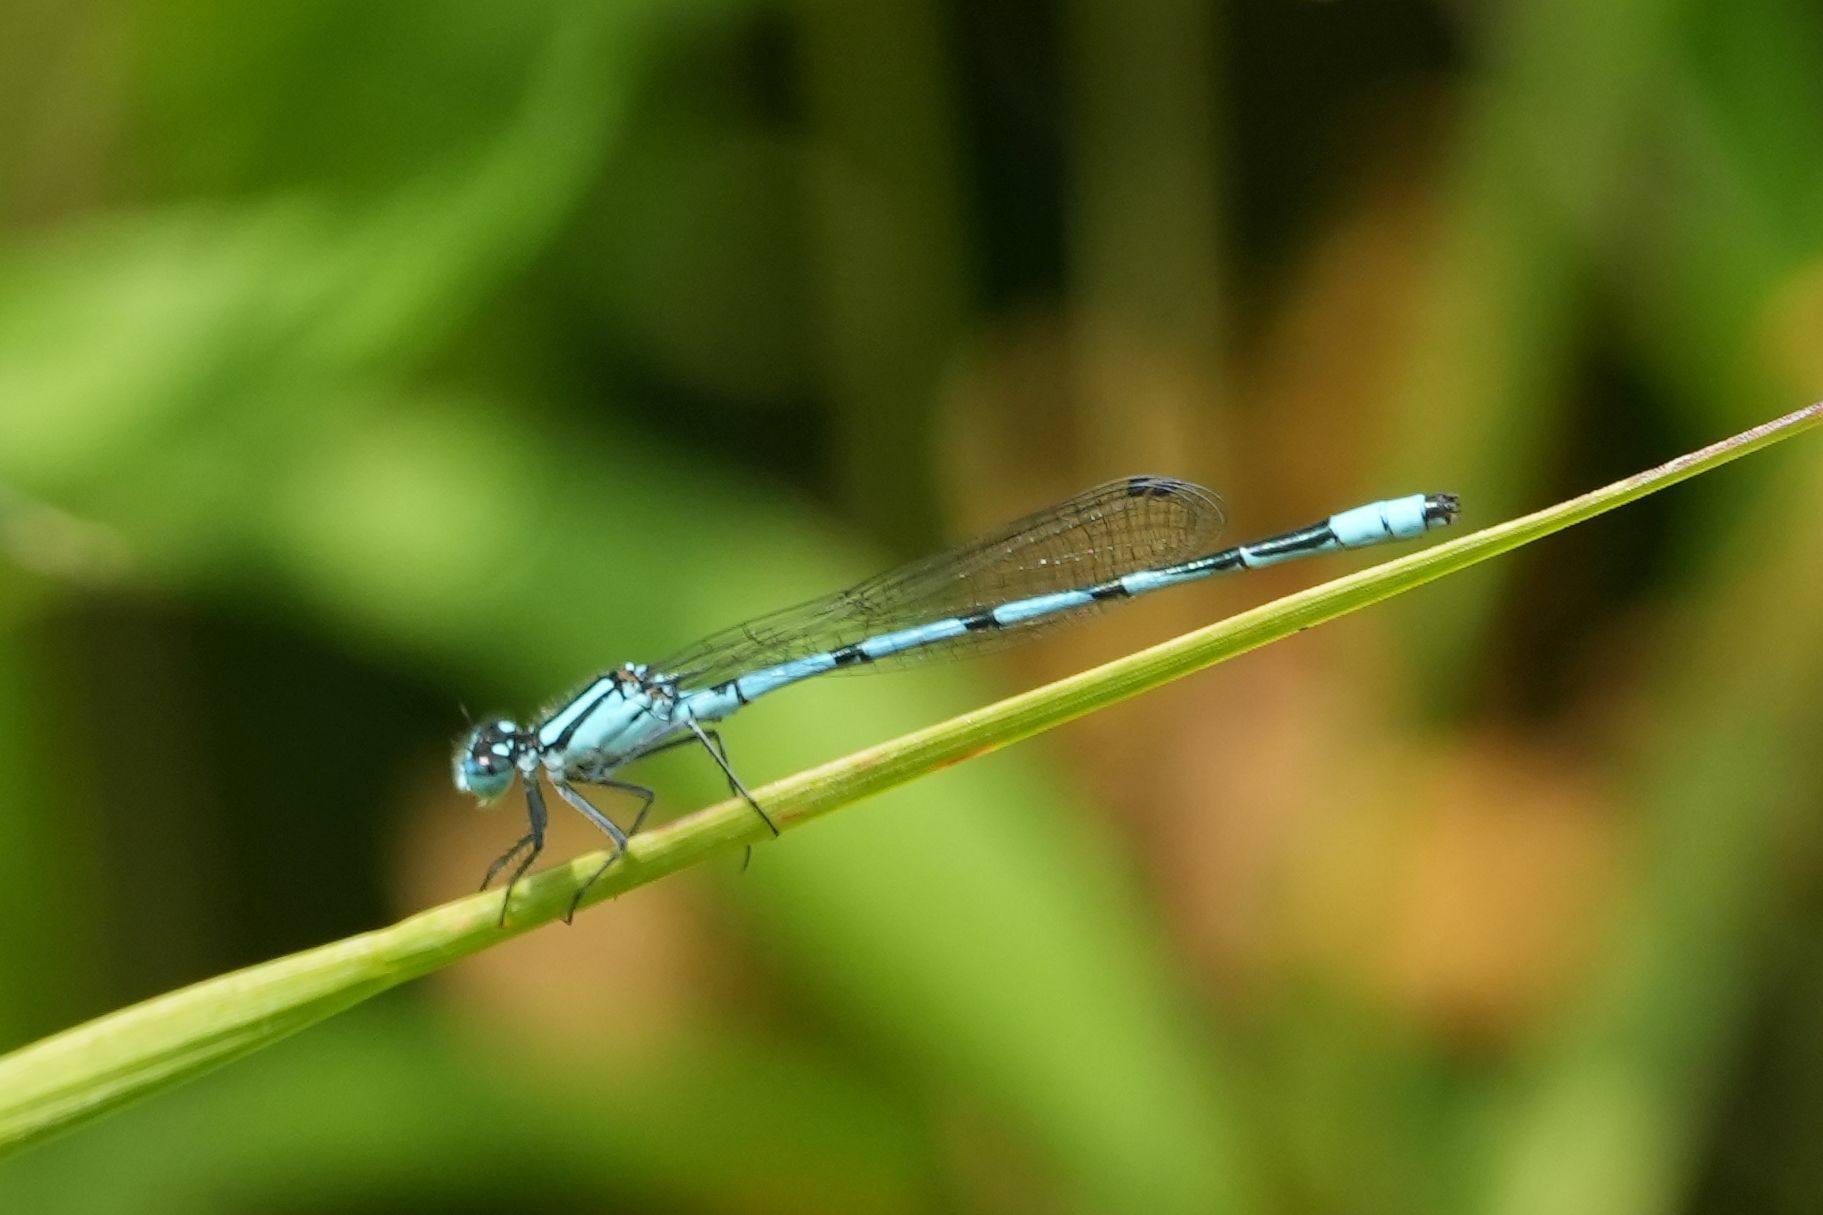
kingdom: Animalia
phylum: Arthropoda
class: Insecta
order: Odonata
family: Coenagrionidae
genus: Enallagma
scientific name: Enallagma ebrium
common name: Marsh bluet
